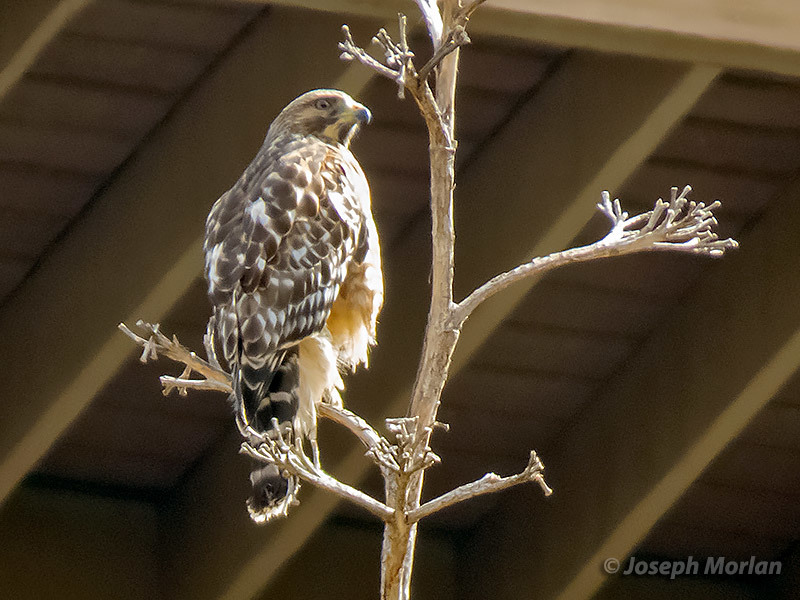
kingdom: Animalia
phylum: Chordata
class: Aves
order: Accipitriformes
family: Accipitridae
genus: Buteo
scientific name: Buteo lineatus
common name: Red-shouldered hawk
